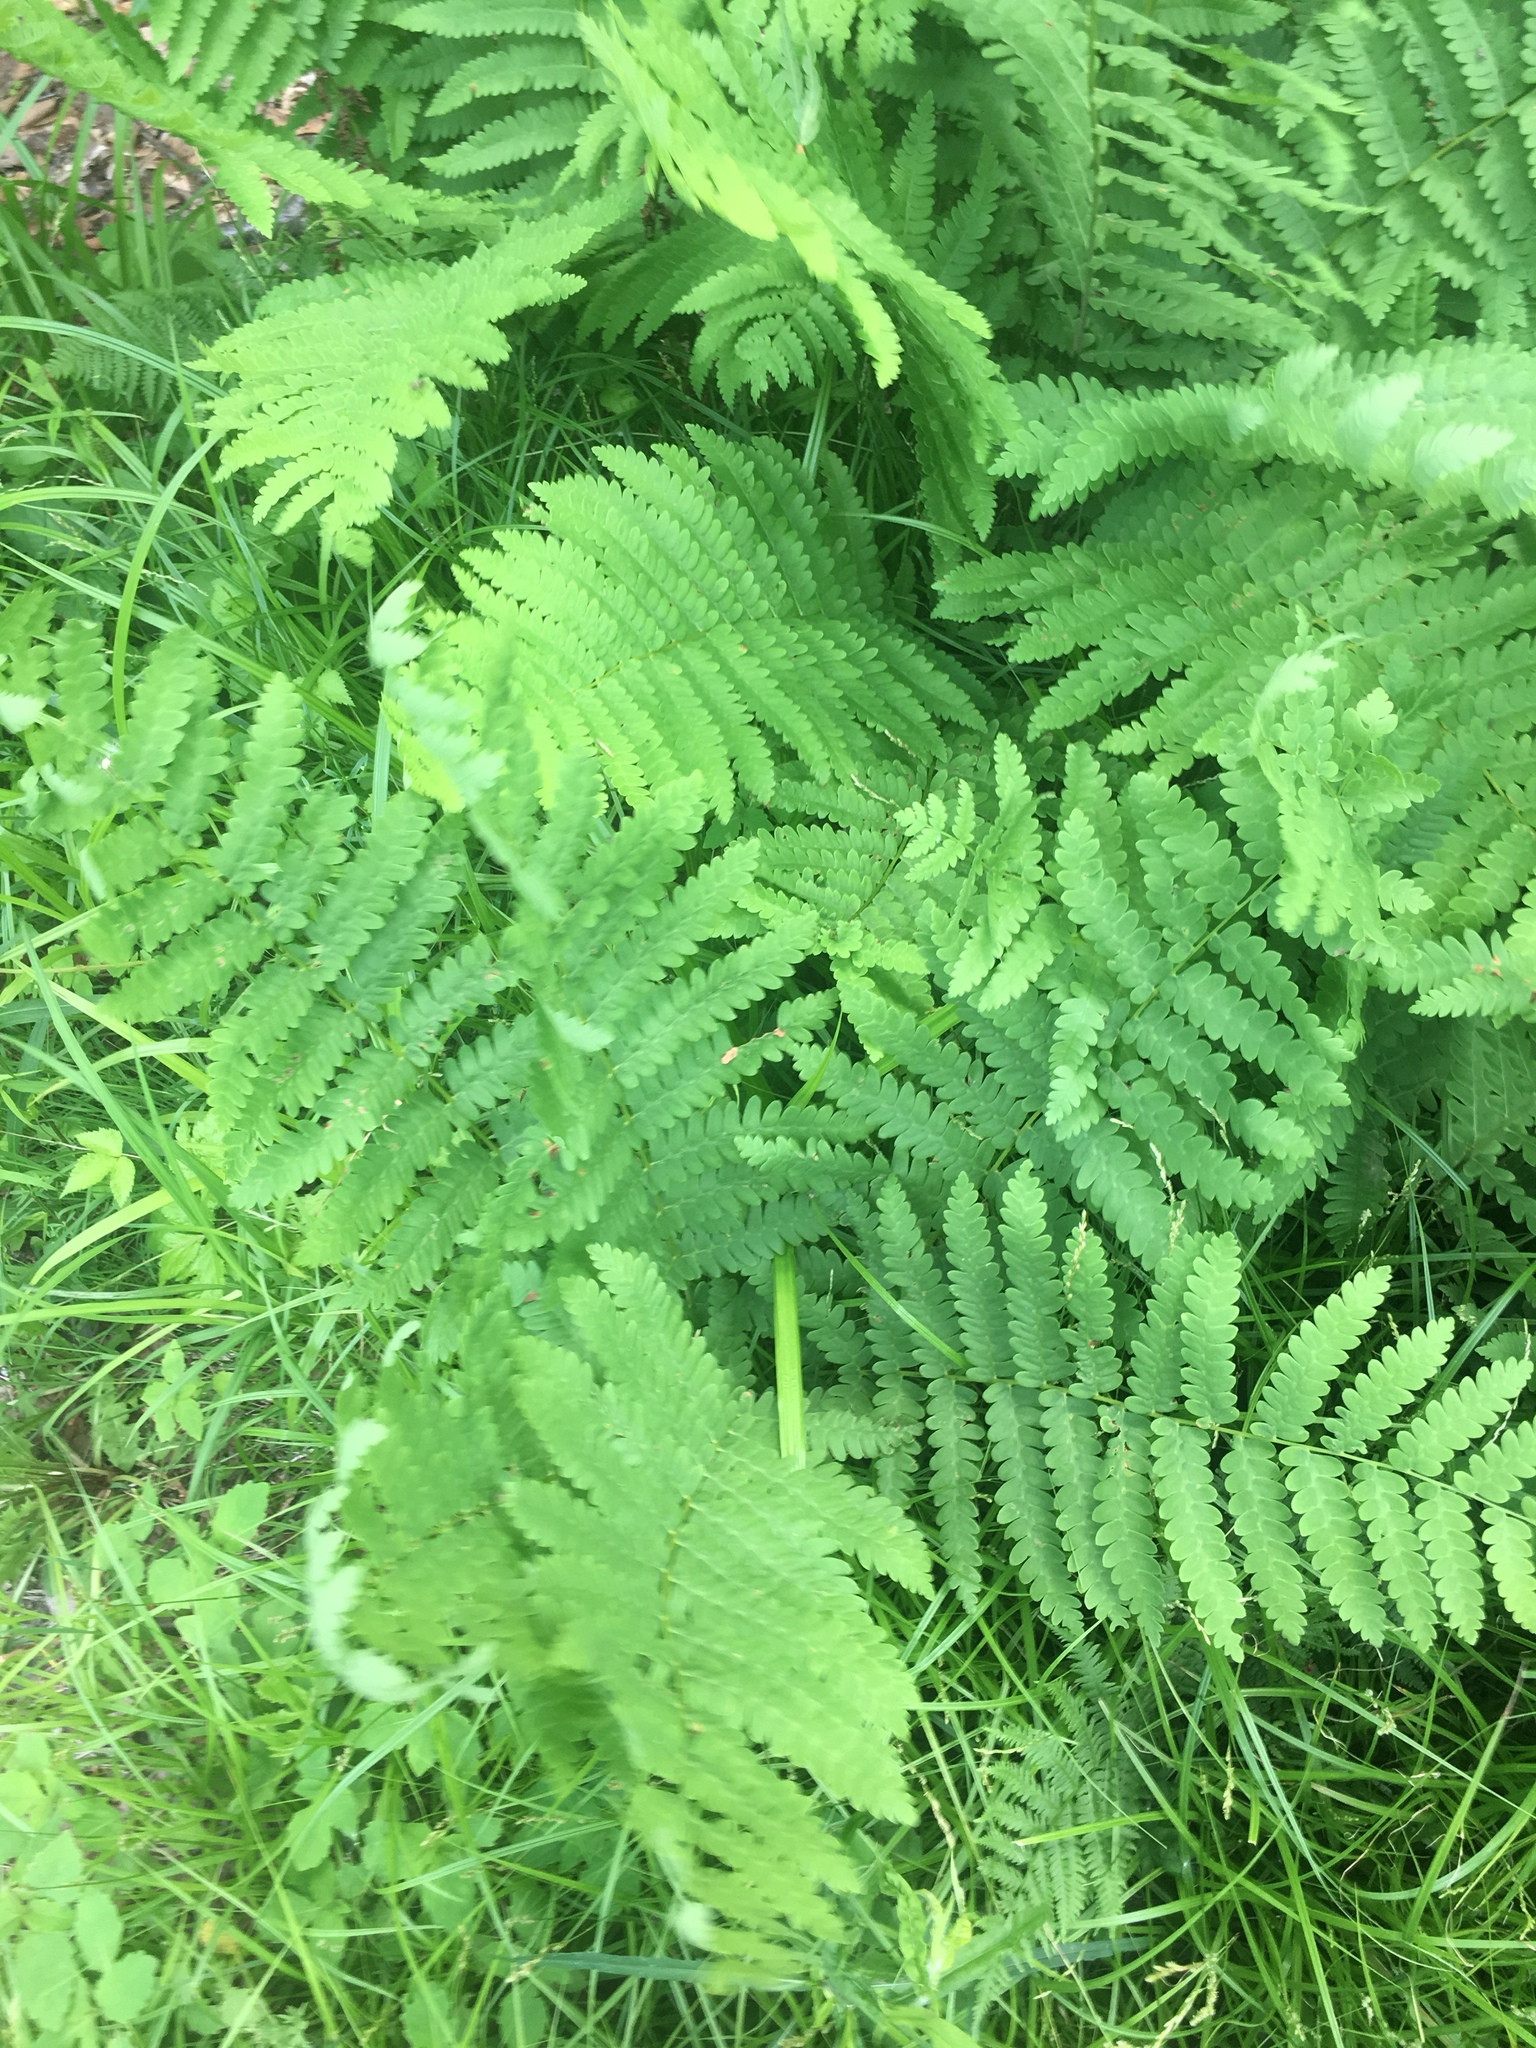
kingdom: Plantae
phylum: Tracheophyta
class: Polypodiopsida
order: Polypodiales
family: Thelypteridaceae
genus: Amauropelta
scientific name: Amauropelta noveboracensis
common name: New york fern
